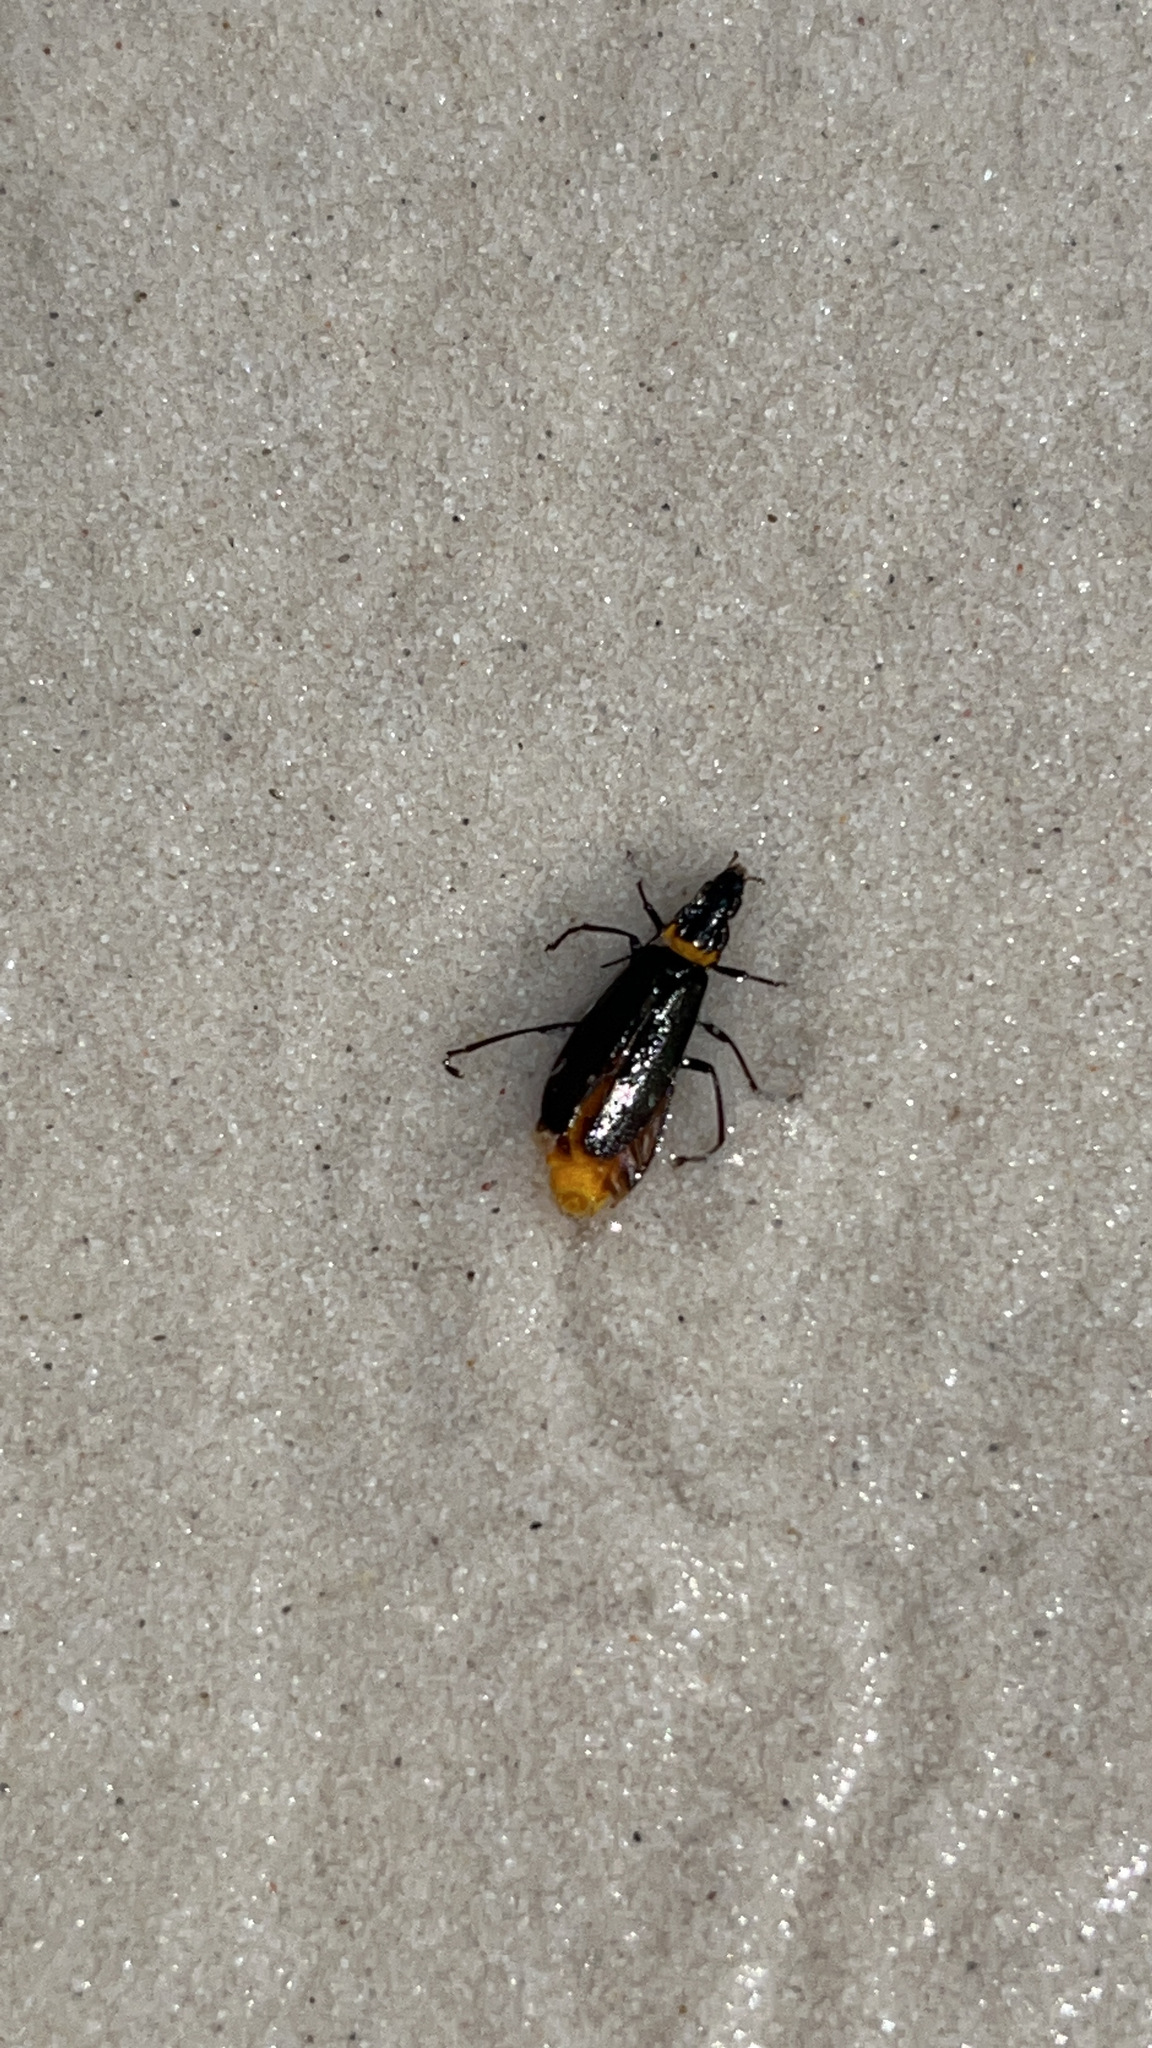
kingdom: Animalia
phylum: Arthropoda
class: Insecta
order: Coleoptera
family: Cantharidae
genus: Chauliognathus
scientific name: Chauliognathus
